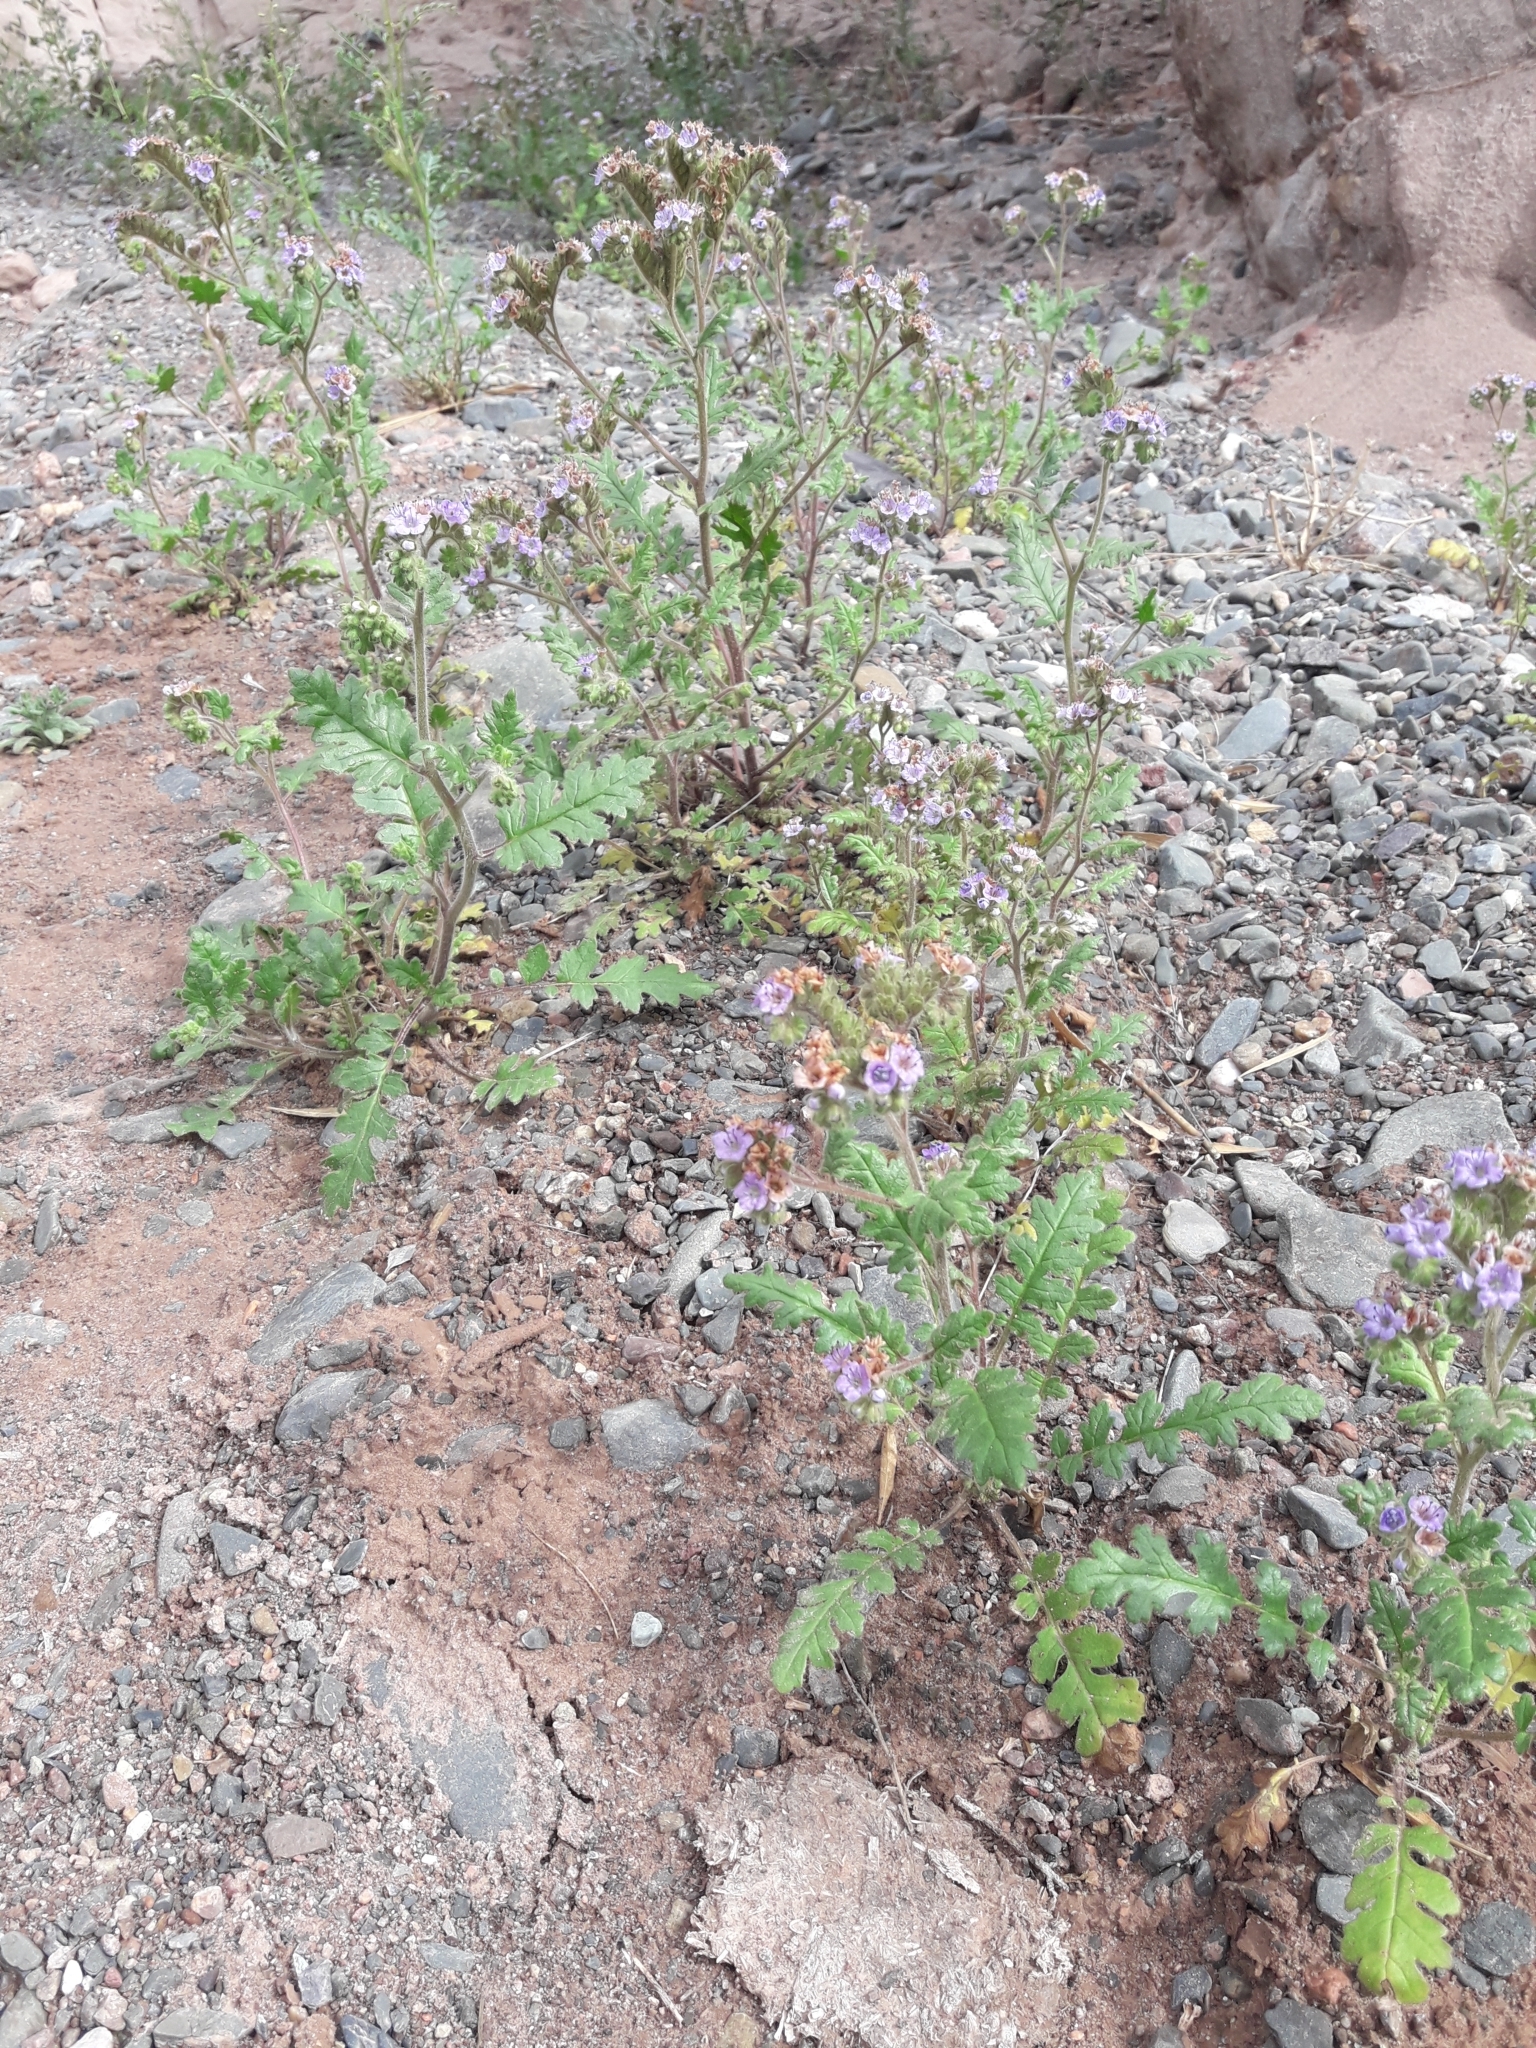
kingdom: Plantae
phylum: Tracheophyta
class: Magnoliopsida
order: Boraginales
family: Hydrophyllaceae
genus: Phacelia
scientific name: Phacelia pinnatifida
